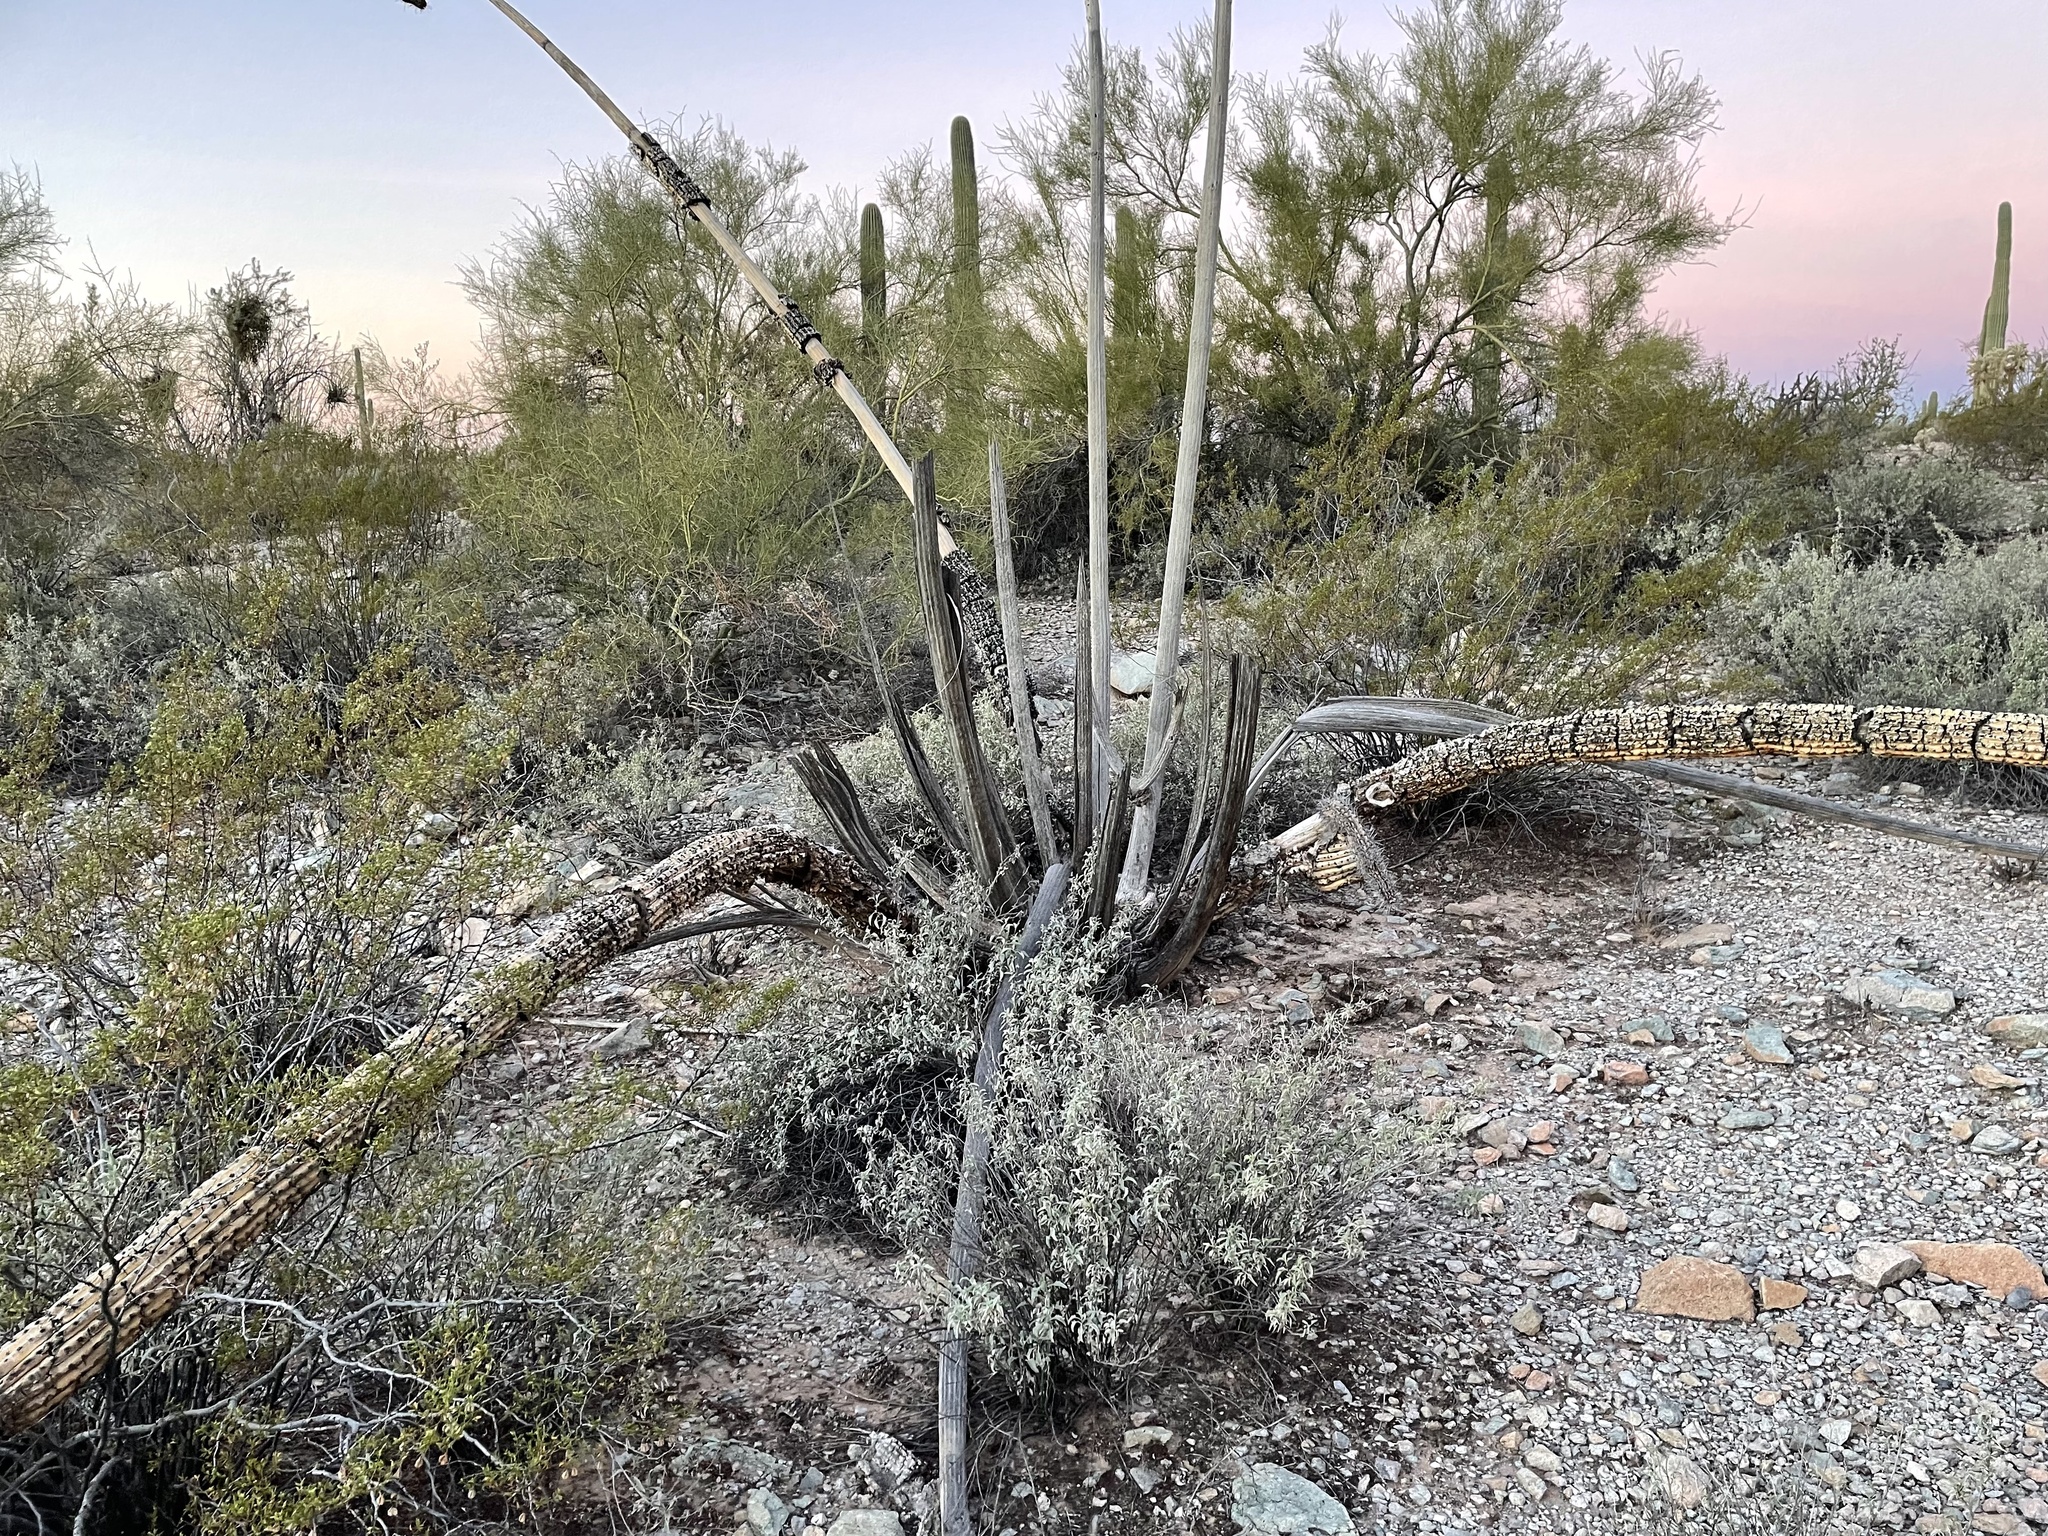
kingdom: Plantae
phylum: Tracheophyta
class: Magnoliopsida
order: Caryophyllales
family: Cactaceae
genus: Stenocereus
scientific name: Stenocereus thurberi
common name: Organ pipe cactus
